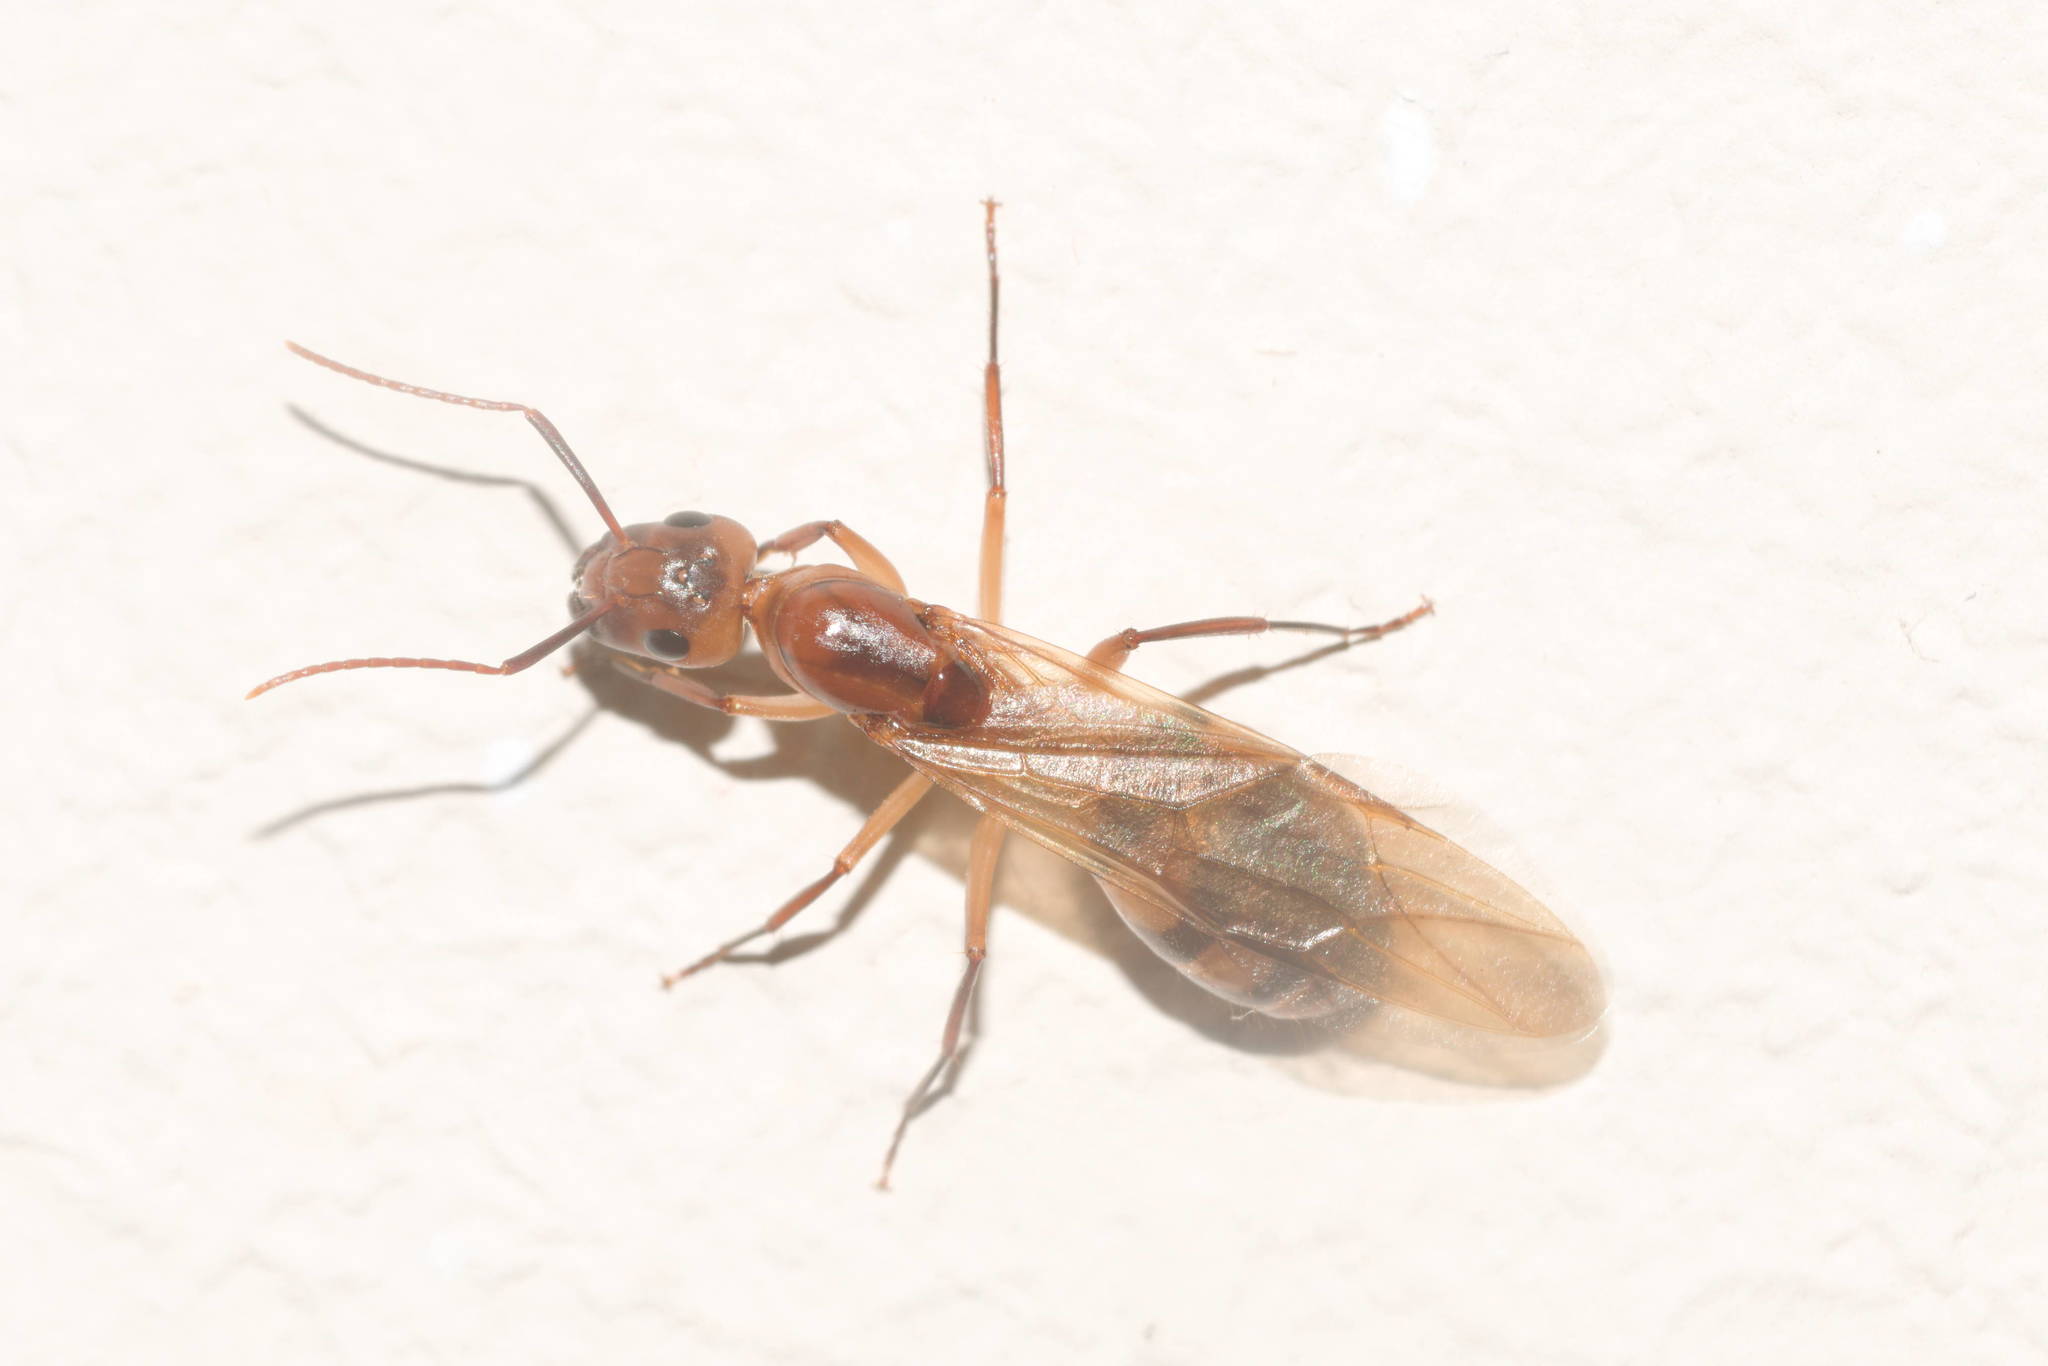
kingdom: Animalia
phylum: Arthropoda
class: Insecta
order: Hymenoptera
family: Formicidae
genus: Camponotus
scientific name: Camponotus variegatus
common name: Hawaiian carpenter ant
